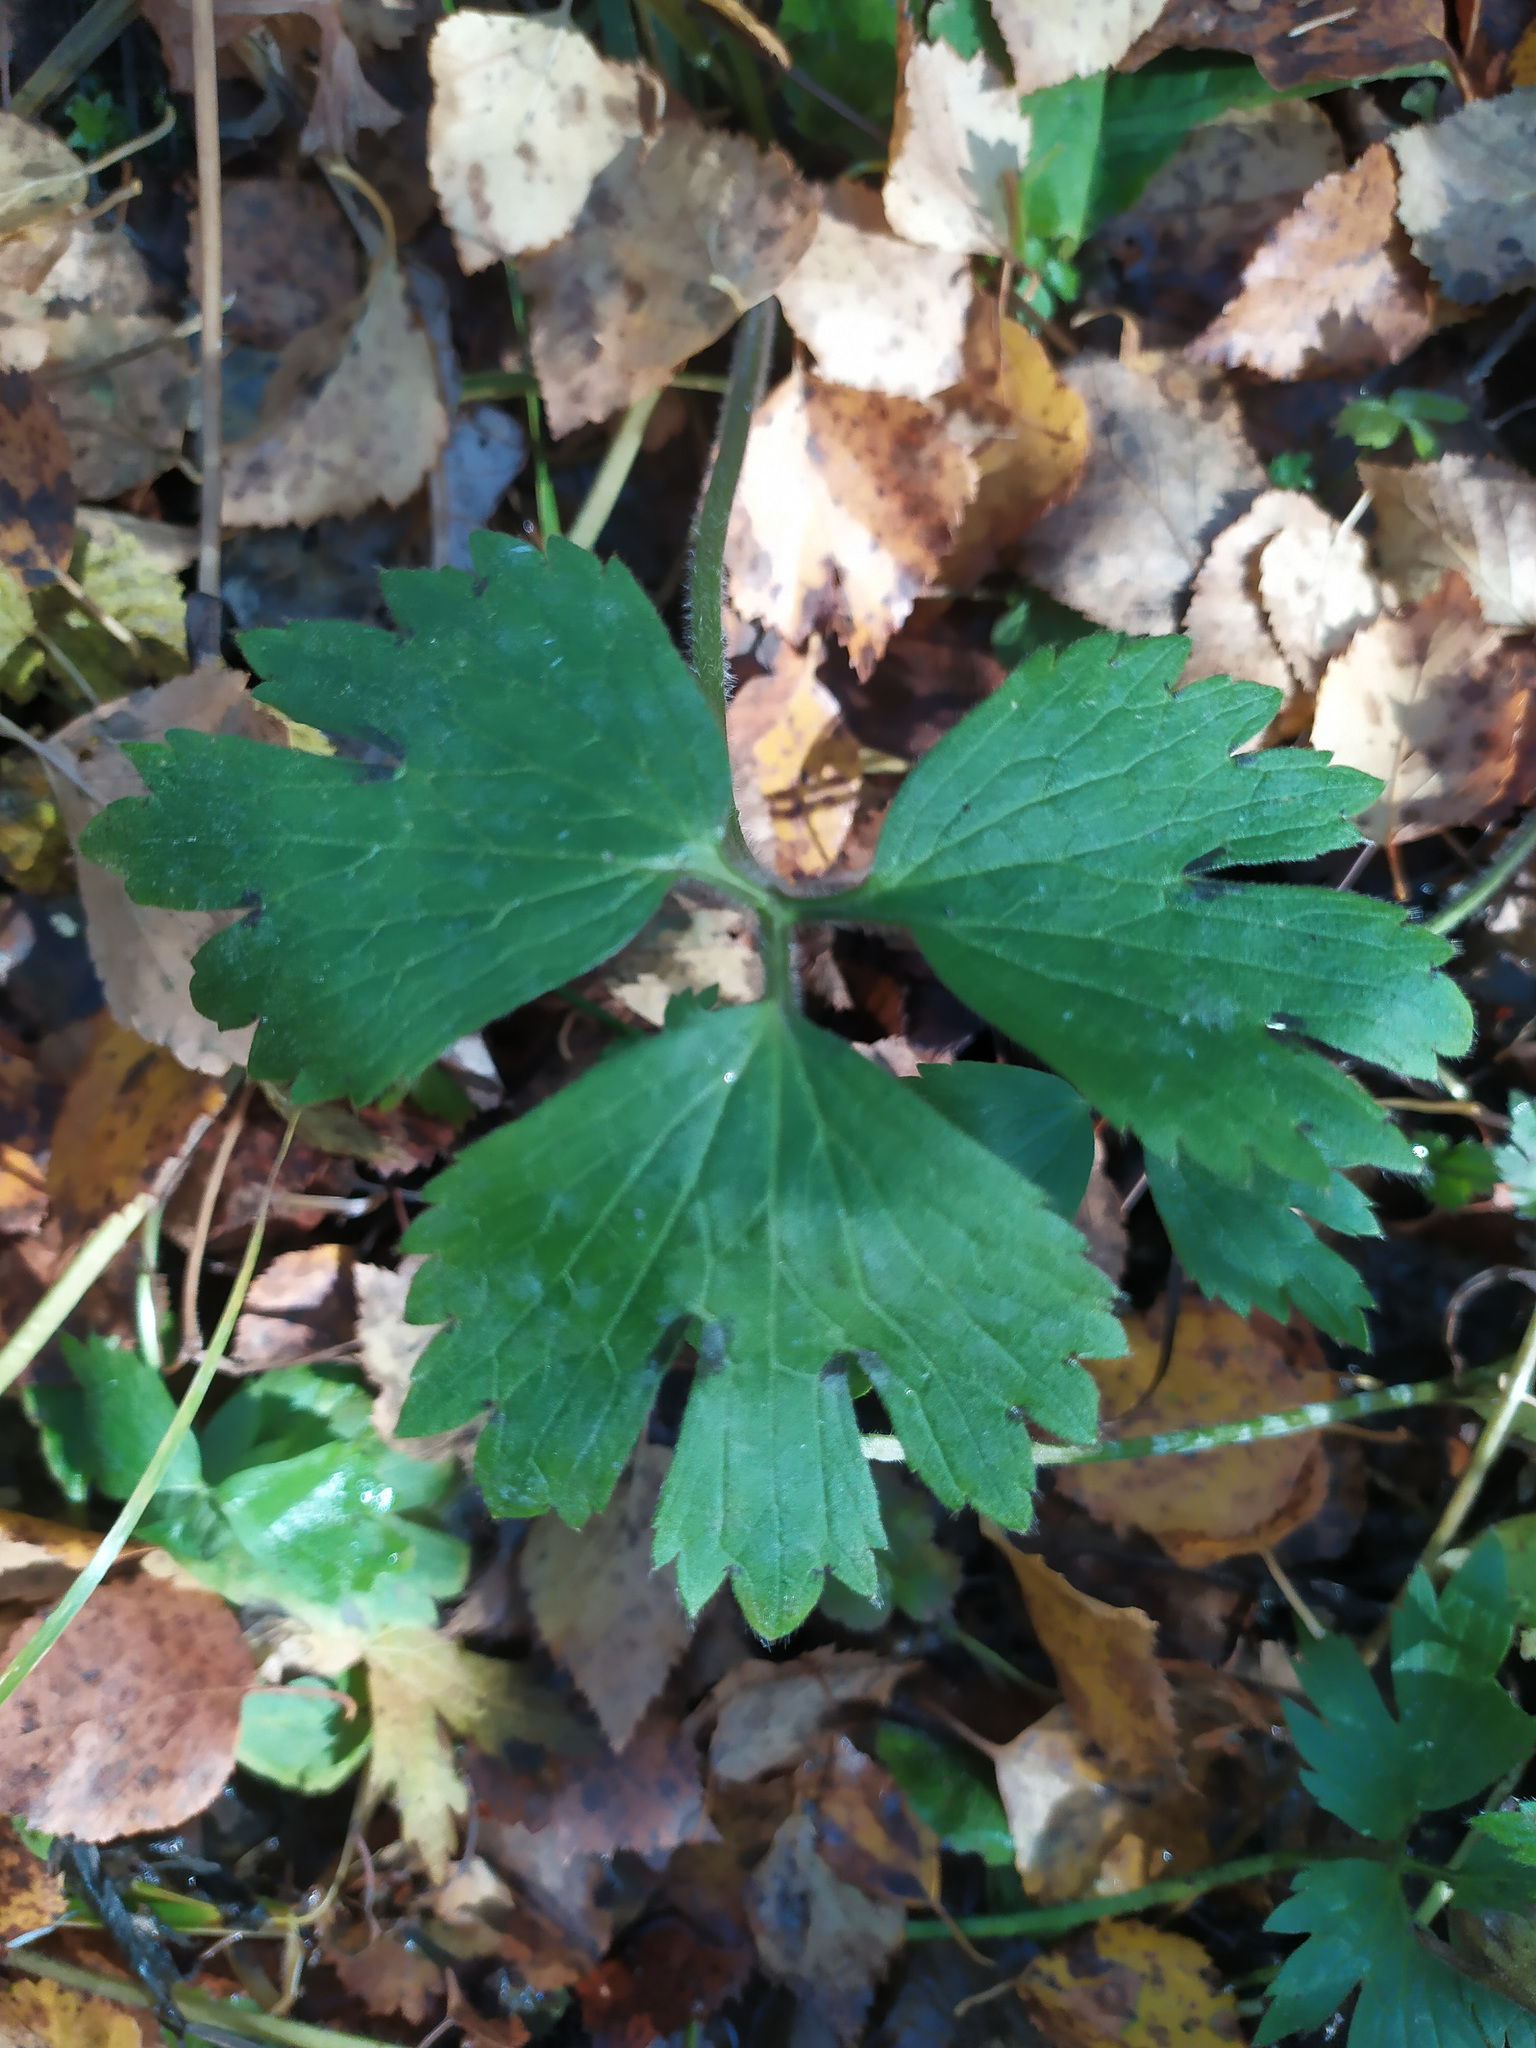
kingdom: Plantae
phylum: Tracheophyta
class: Magnoliopsida
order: Ranunculales
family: Ranunculaceae
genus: Ranunculus
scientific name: Ranunculus repens
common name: Creeping buttercup
